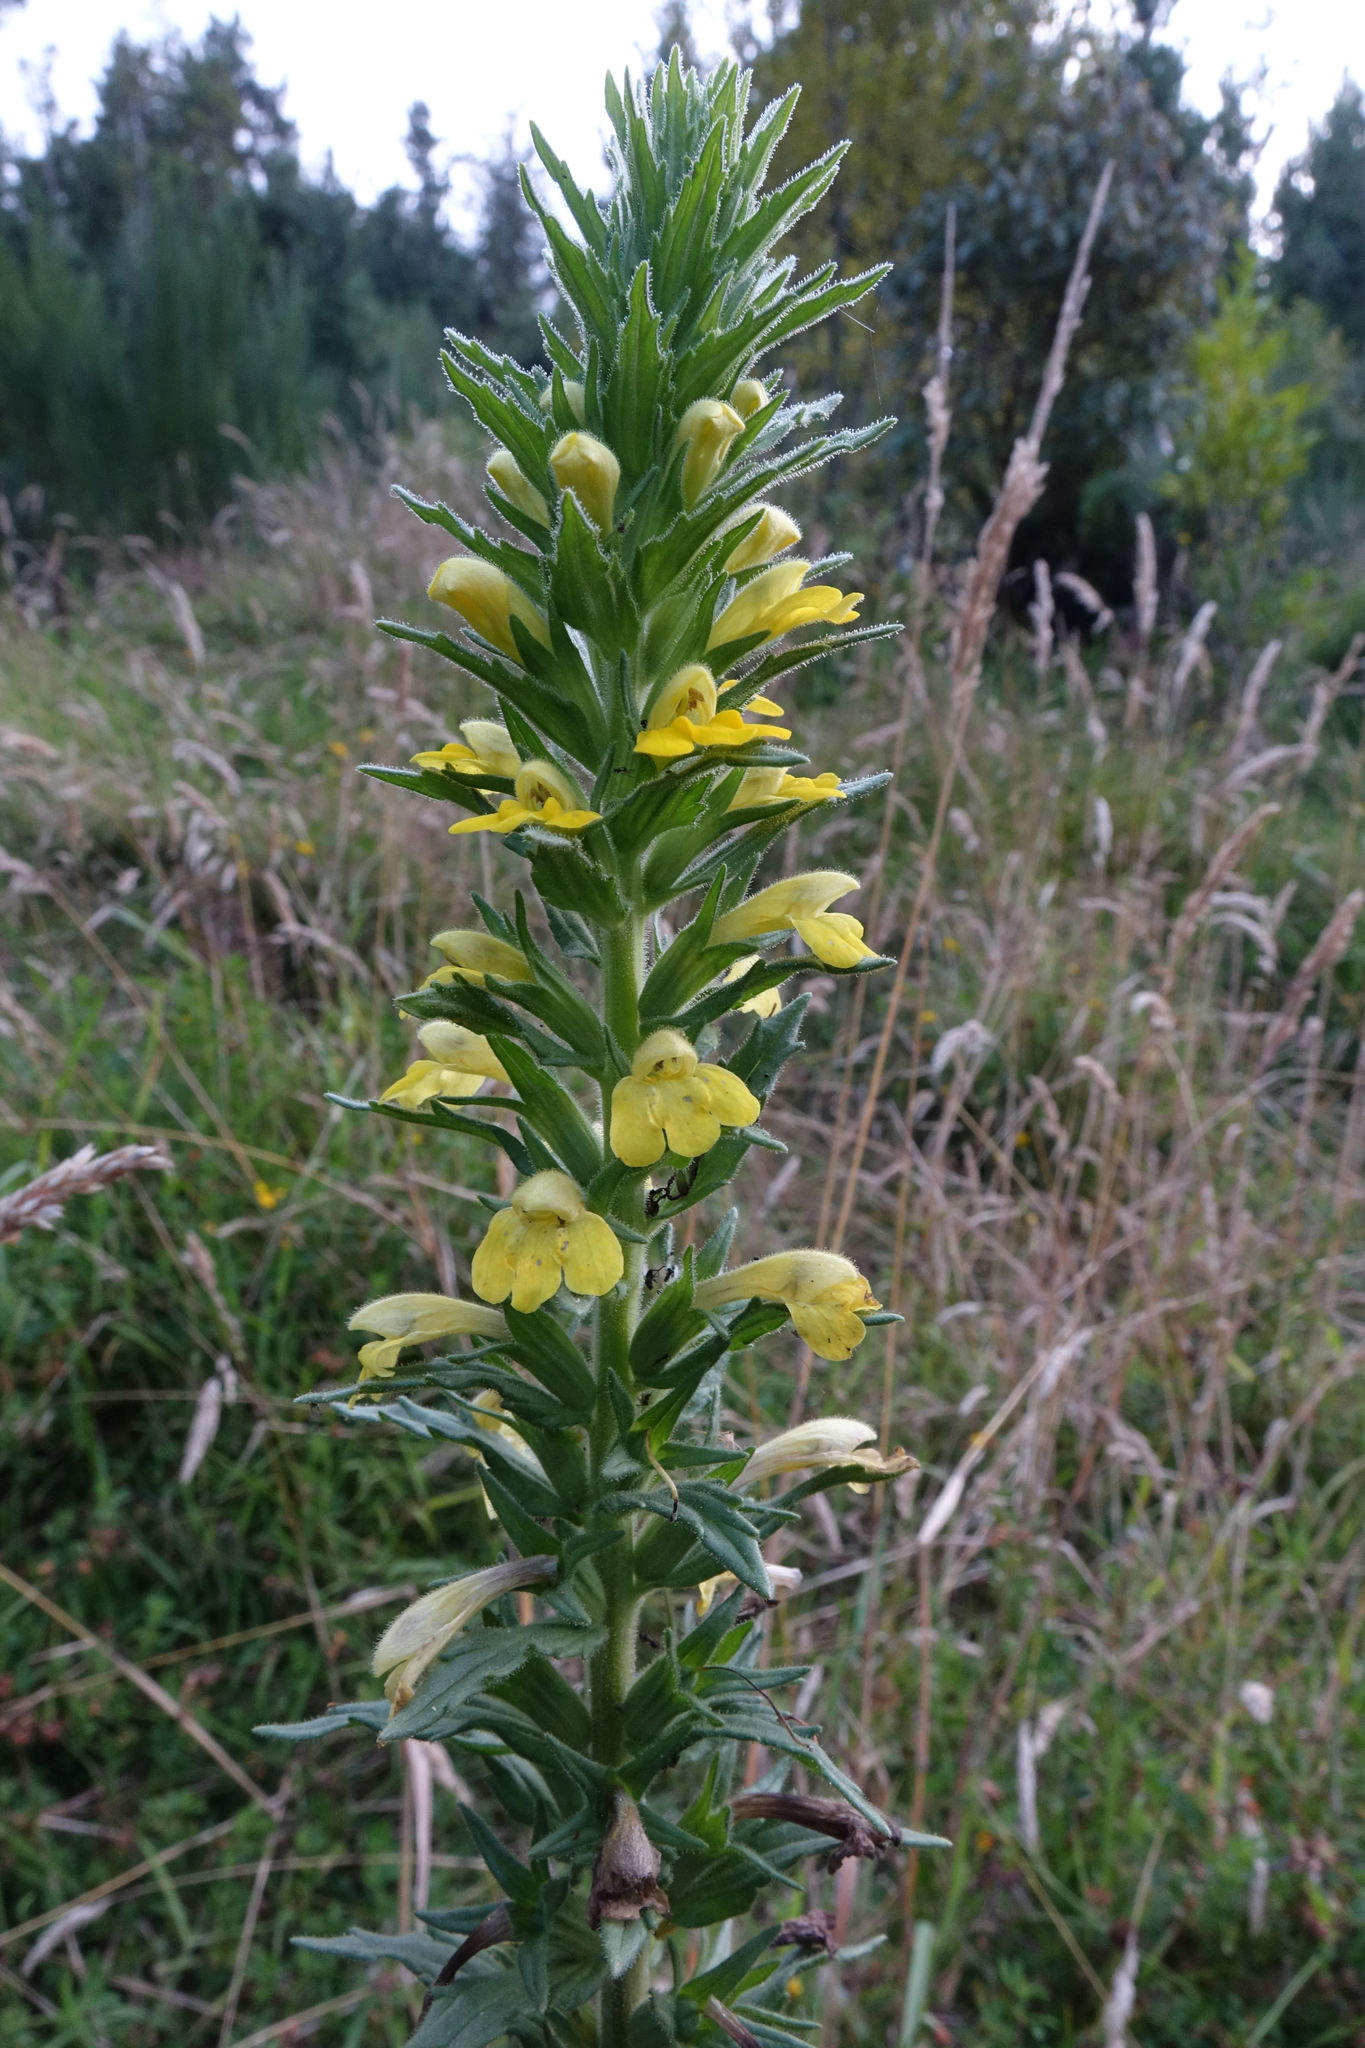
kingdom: Plantae
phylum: Tracheophyta
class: Magnoliopsida
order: Lamiales
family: Orobanchaceae
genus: Bellardia
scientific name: Bellardia viscosa
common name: Sticky parentucellia
